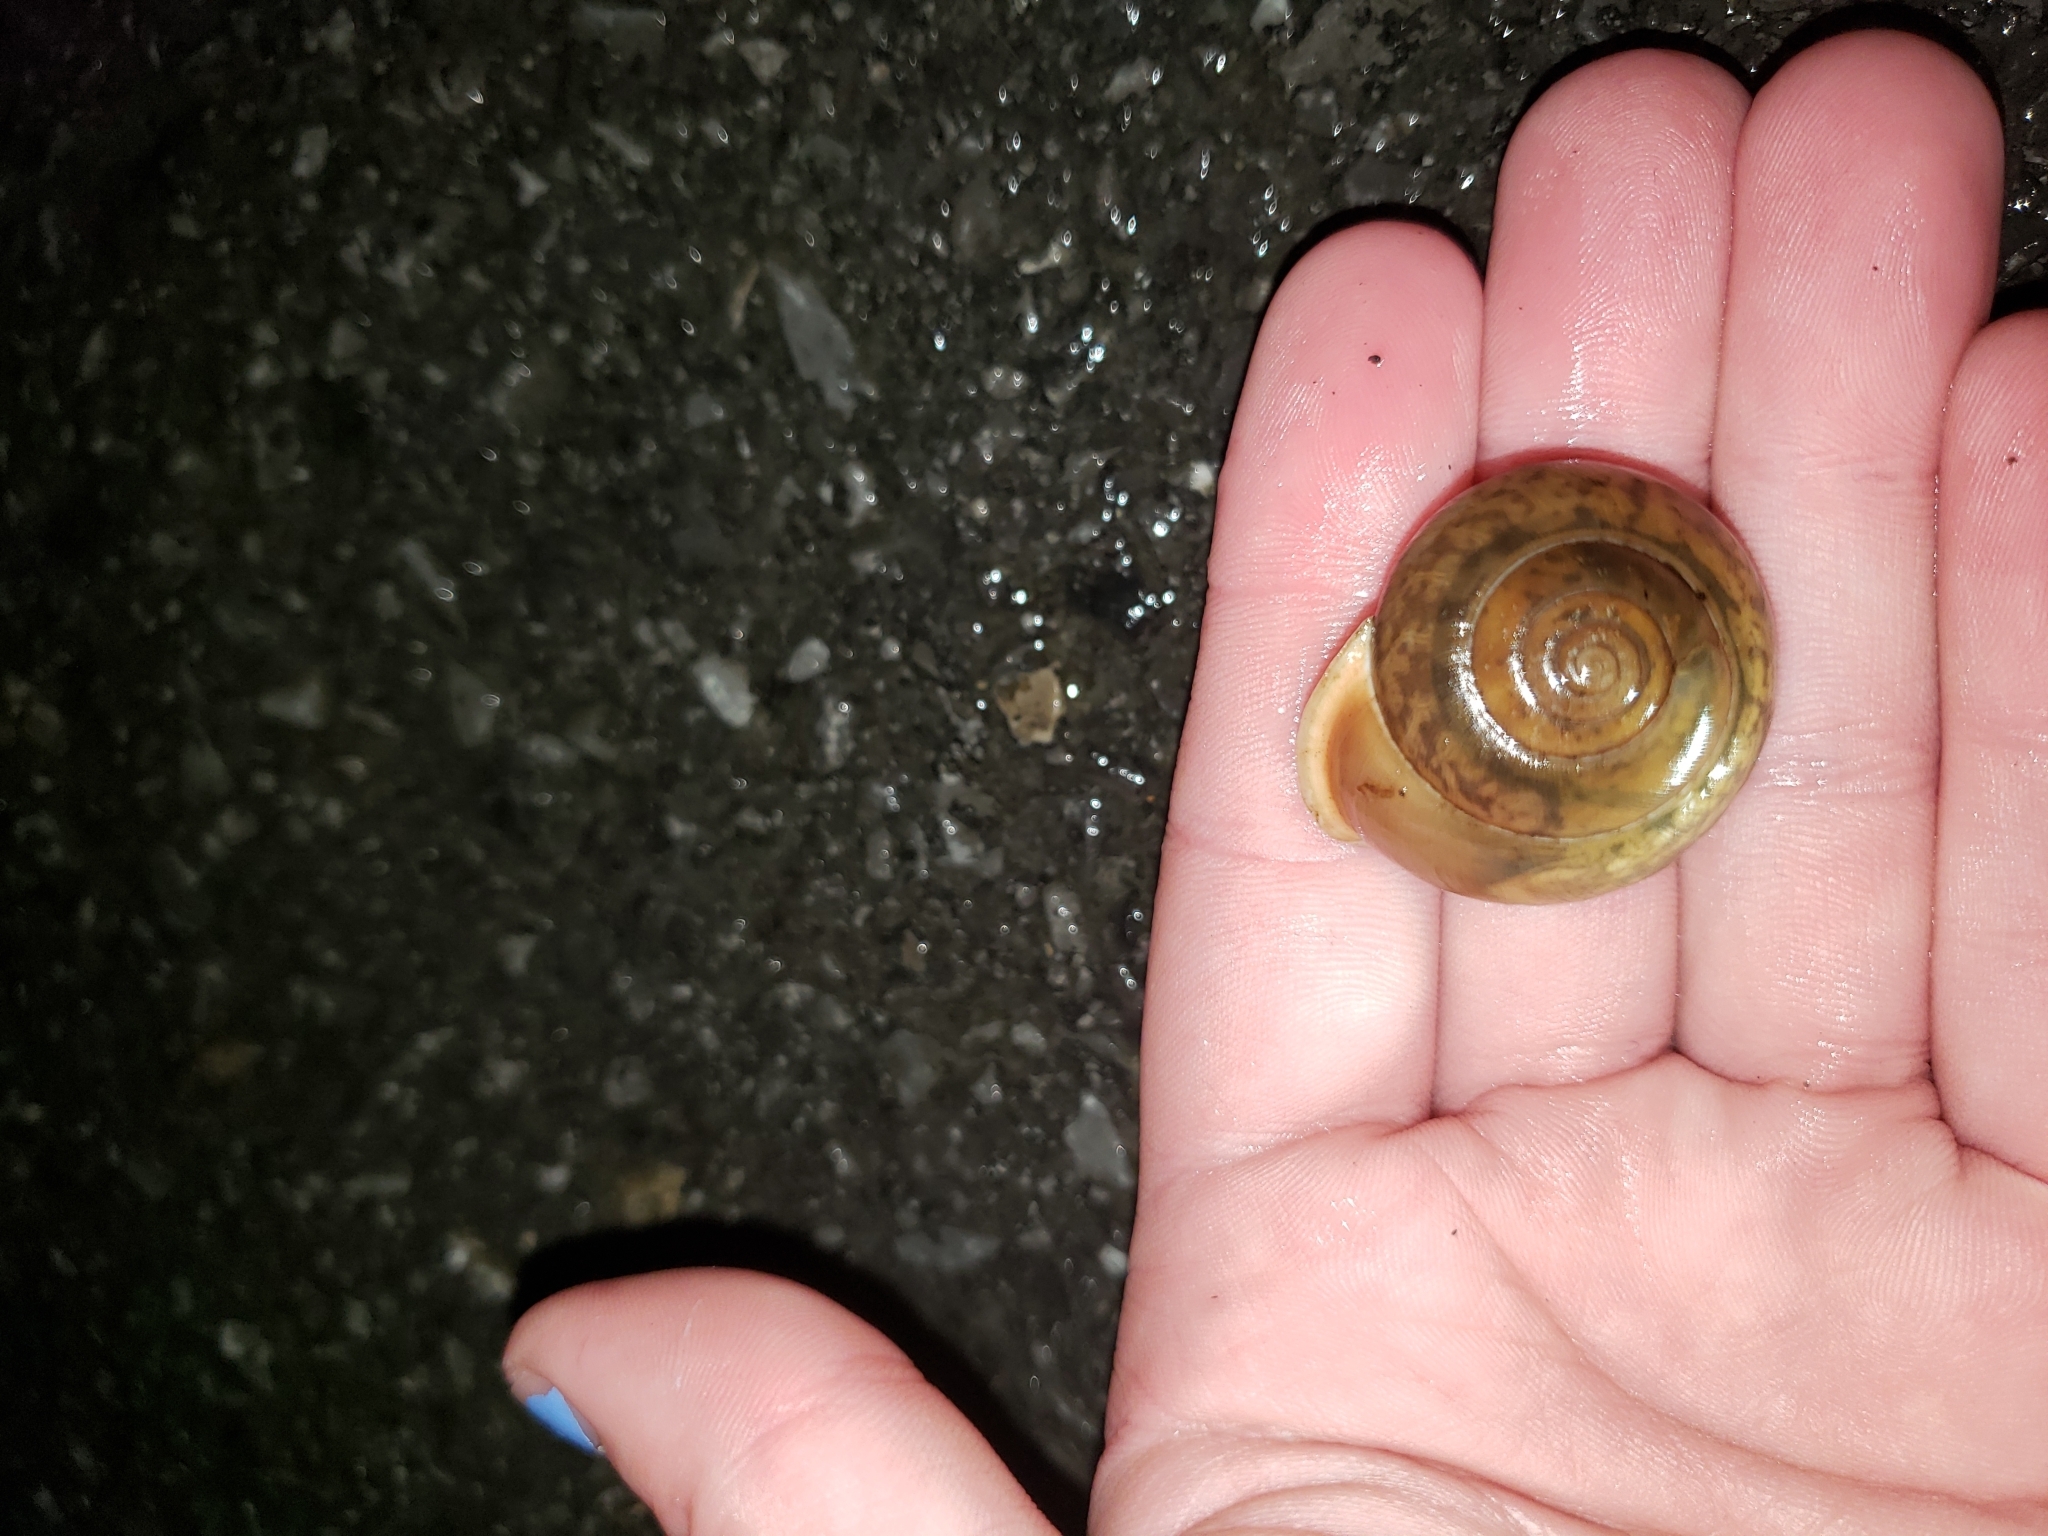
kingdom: Animalia
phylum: Mollusca
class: Gastropoda
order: Stylommatophora
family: Polygyridae
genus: Mesodon
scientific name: Mesodon zaletus
